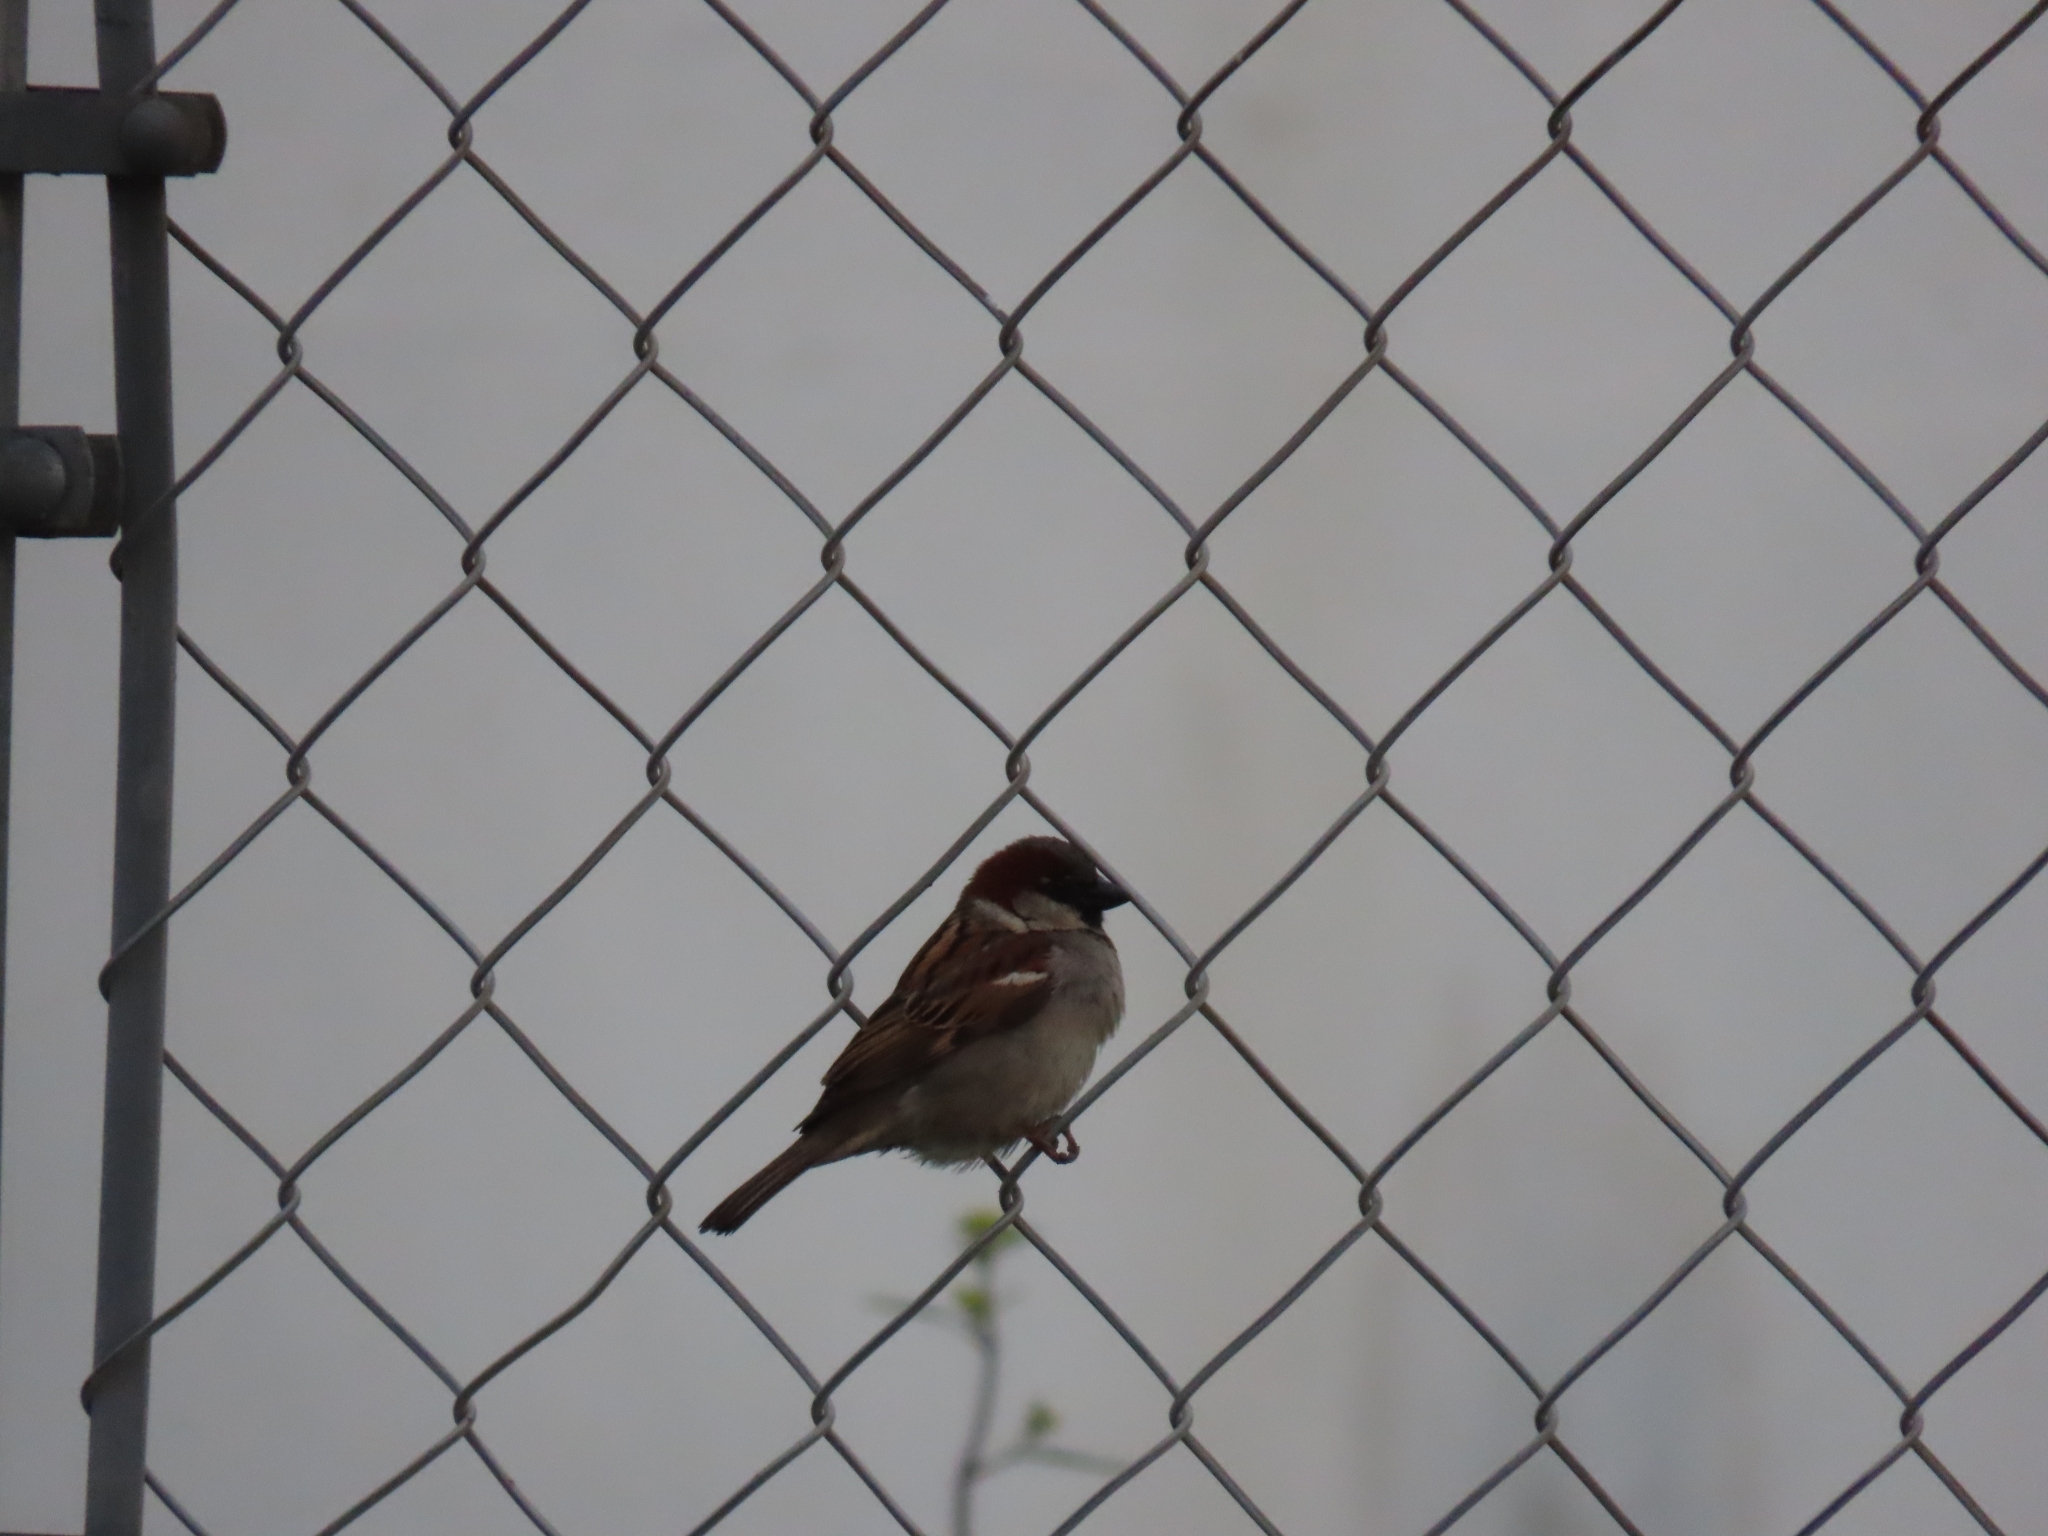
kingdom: Animalia
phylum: Chordata
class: Aves
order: Passeriformes
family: Passeridae
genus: Passer
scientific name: Passer domesticus
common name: House sparrow
